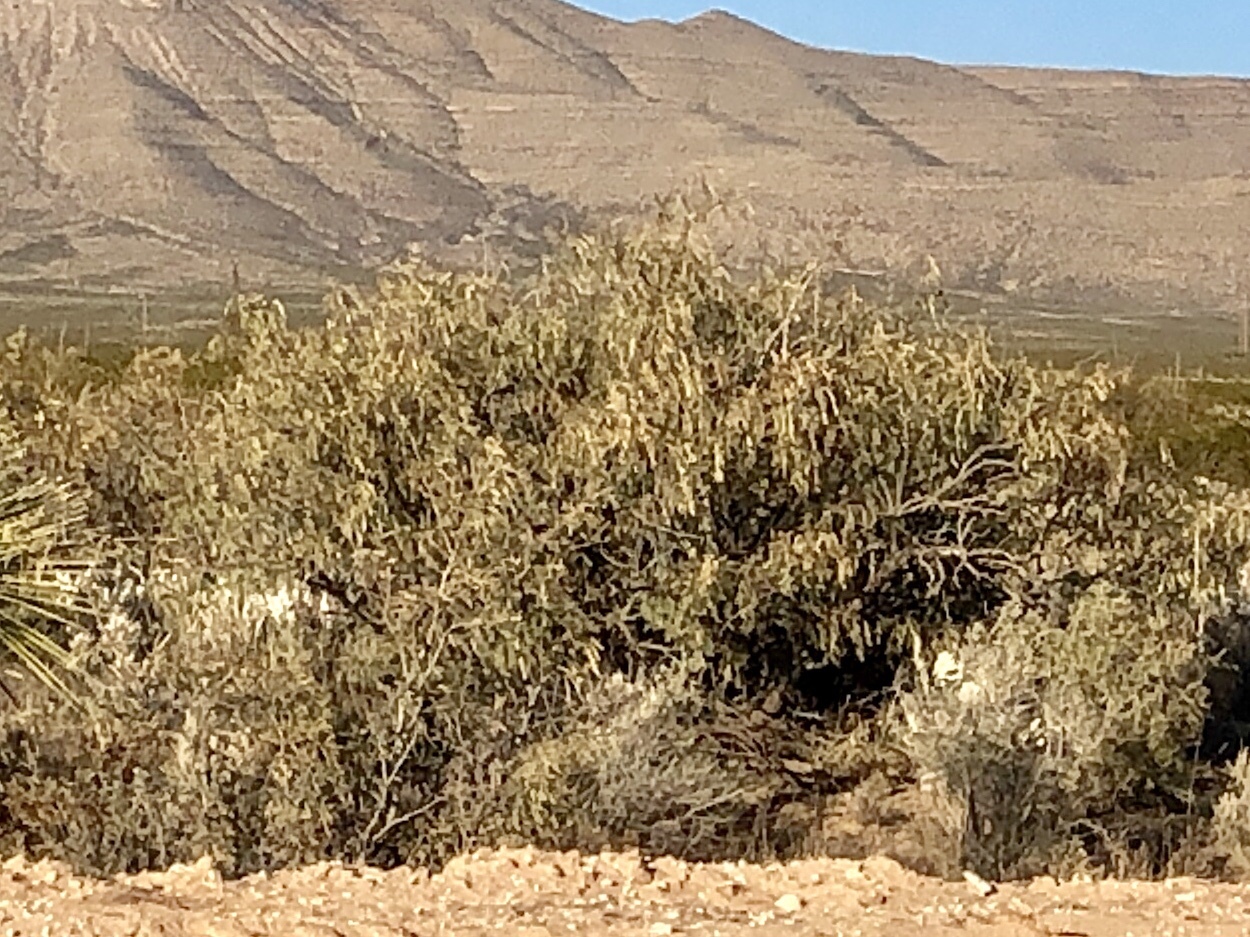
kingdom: Plantae
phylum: Tracheophyta
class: Magnoliopsida
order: Fabales
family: Fabaceae
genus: Prosopis
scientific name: Prosopis glandulosa
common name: Honey mesquite
